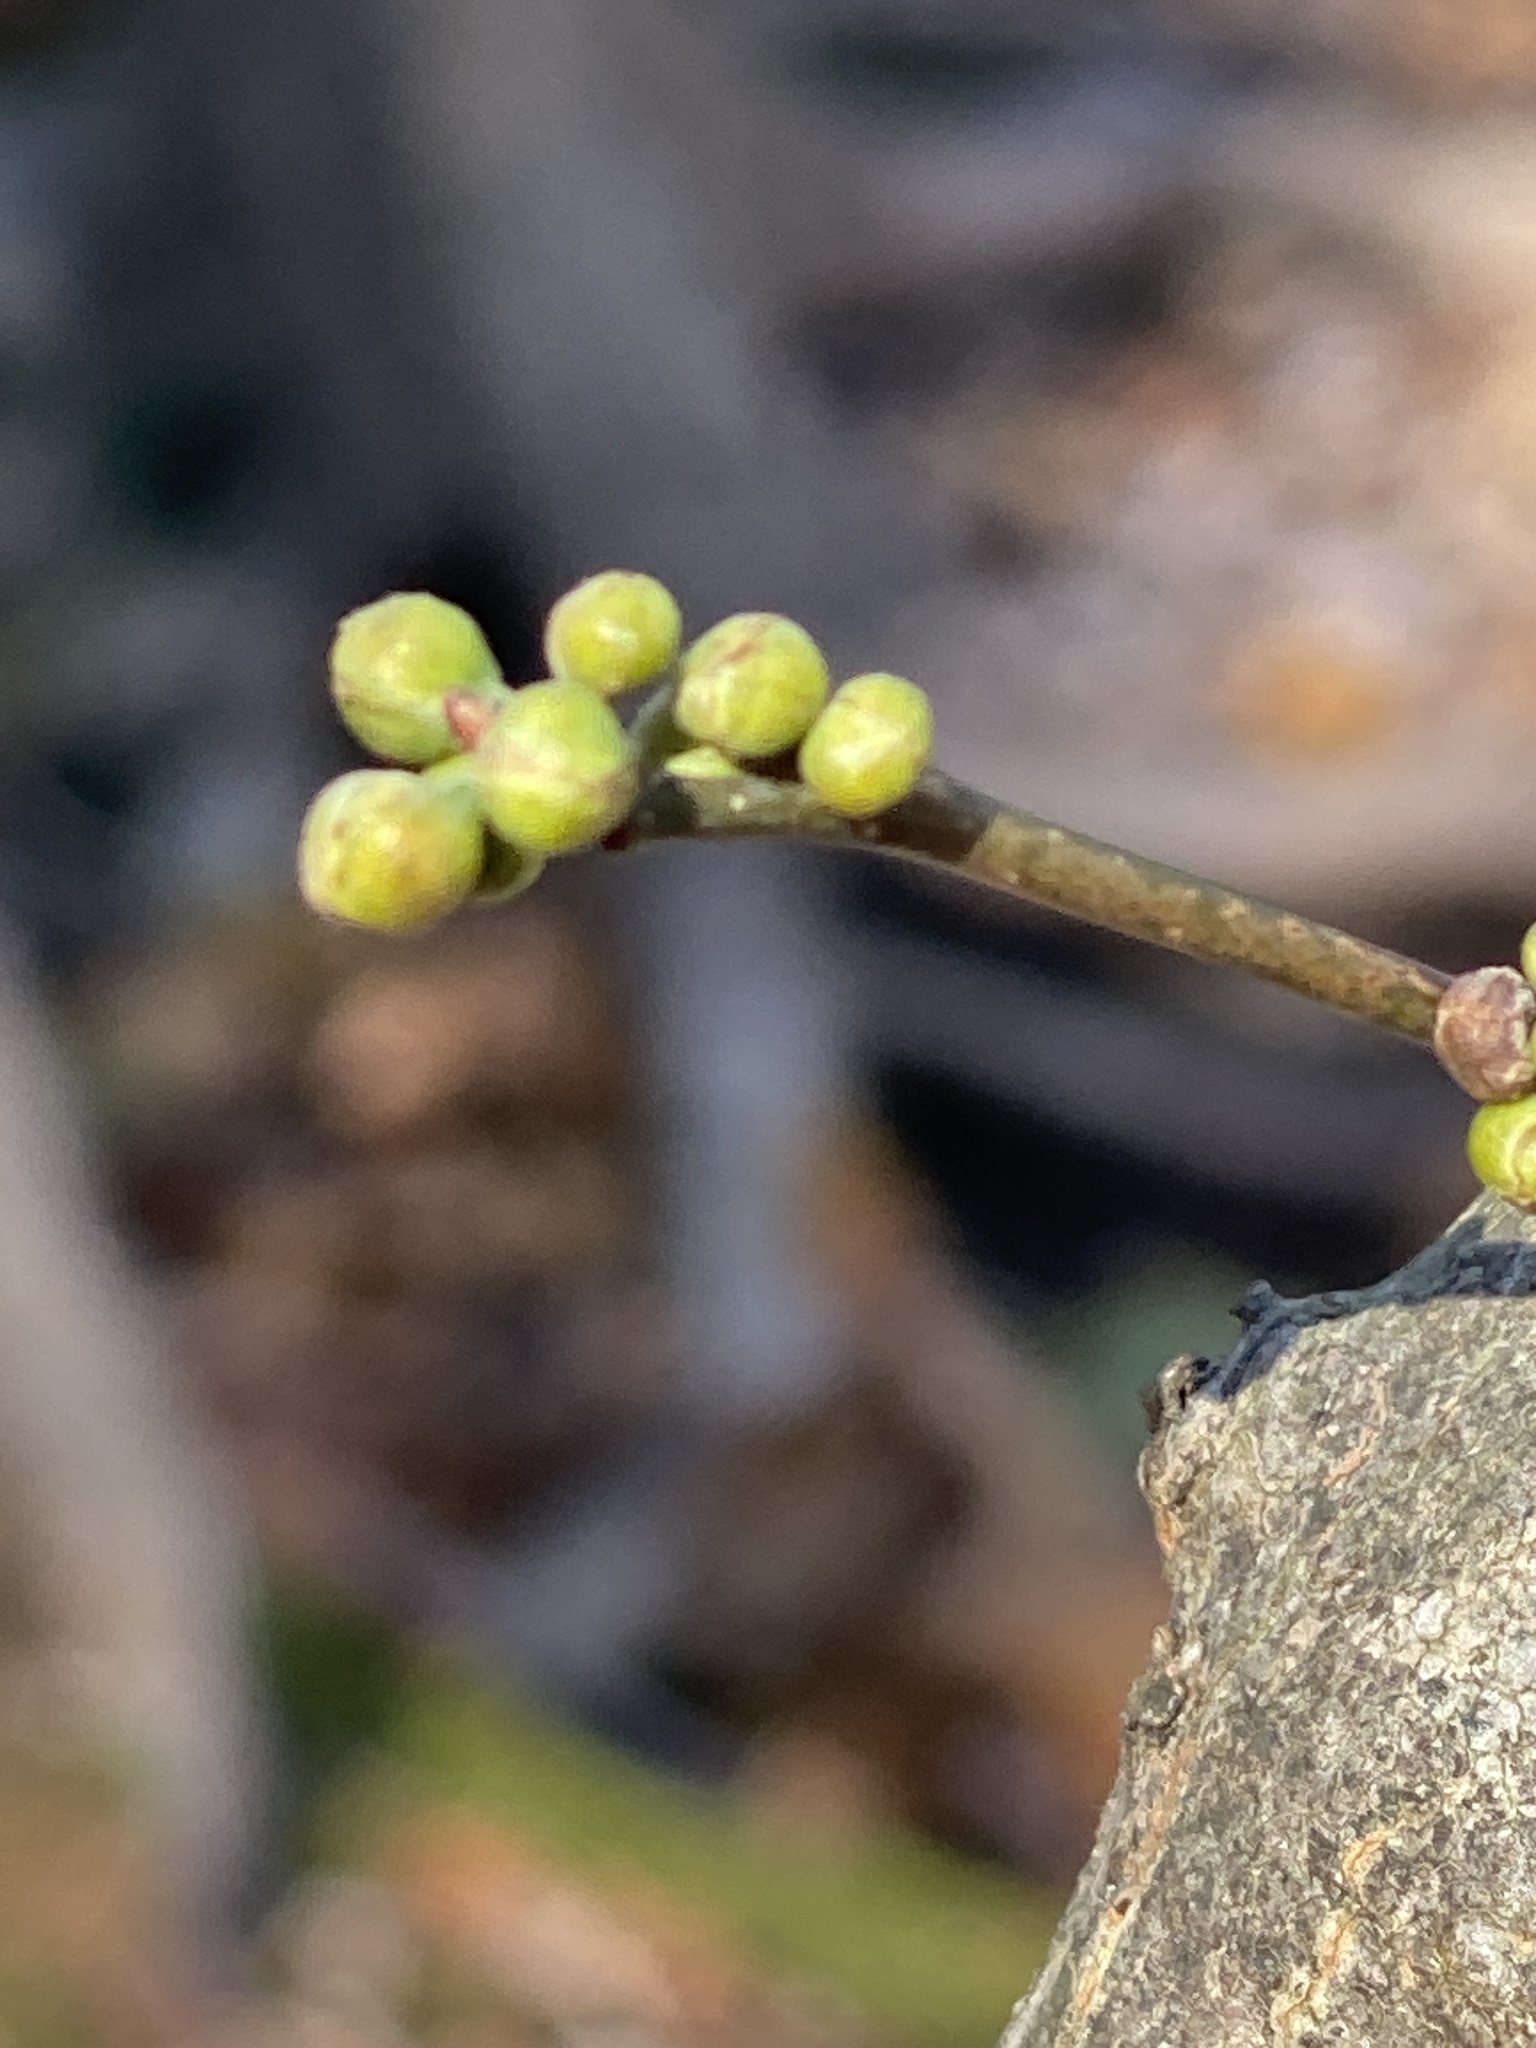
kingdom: Plantae
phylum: Tracheophyta
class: Magnoliopsida
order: Laurales
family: Lauraceae
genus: Lindera
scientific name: Lindera benzoin
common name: Spicebush
